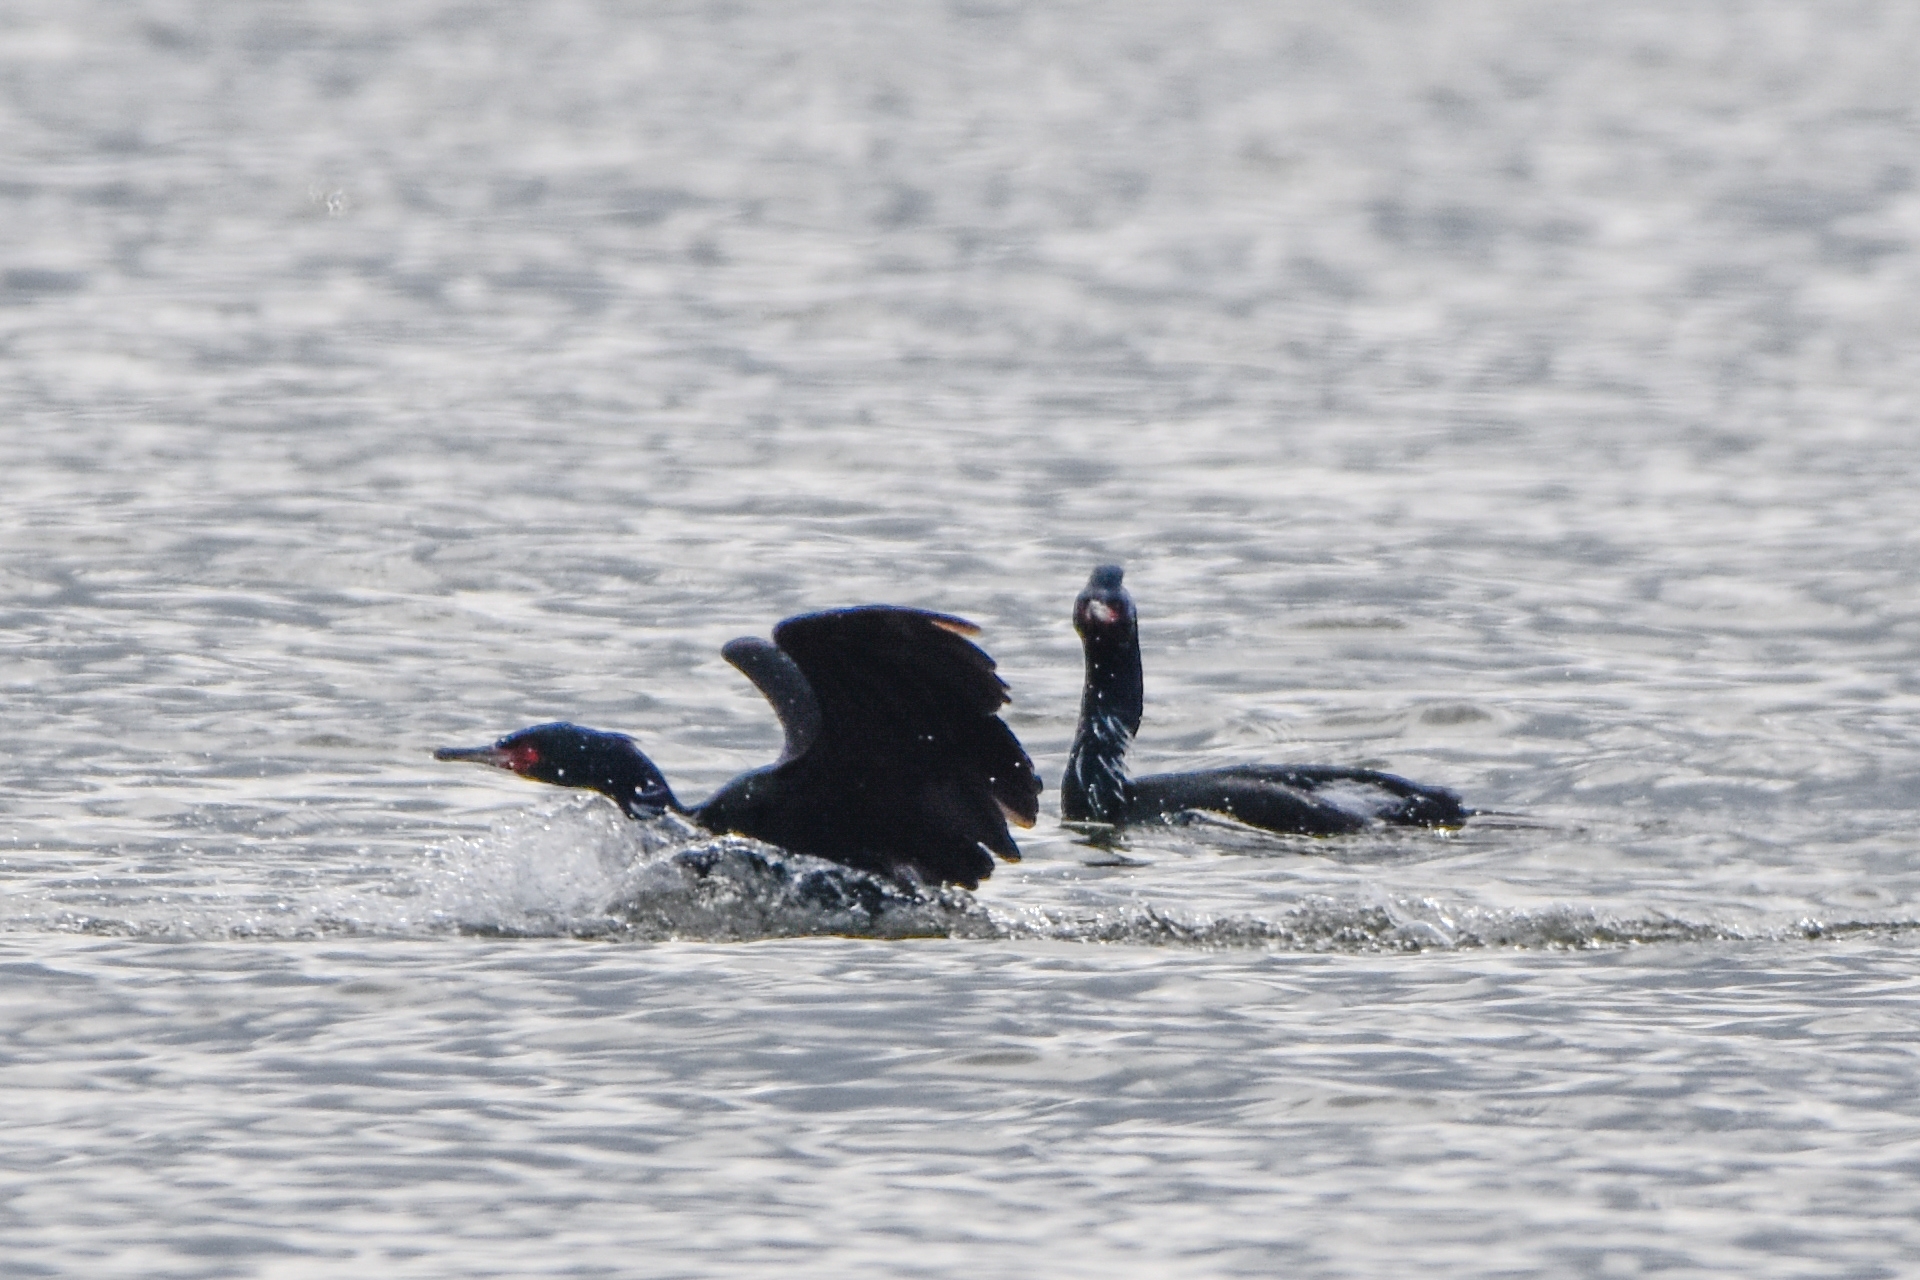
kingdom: Animalia
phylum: Chordata
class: Aves
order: Suliformes
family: Phalacrocoracidae
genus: Phalacrocorax
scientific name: Phalacrocorax pelagicus
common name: Pelagic cormorant
